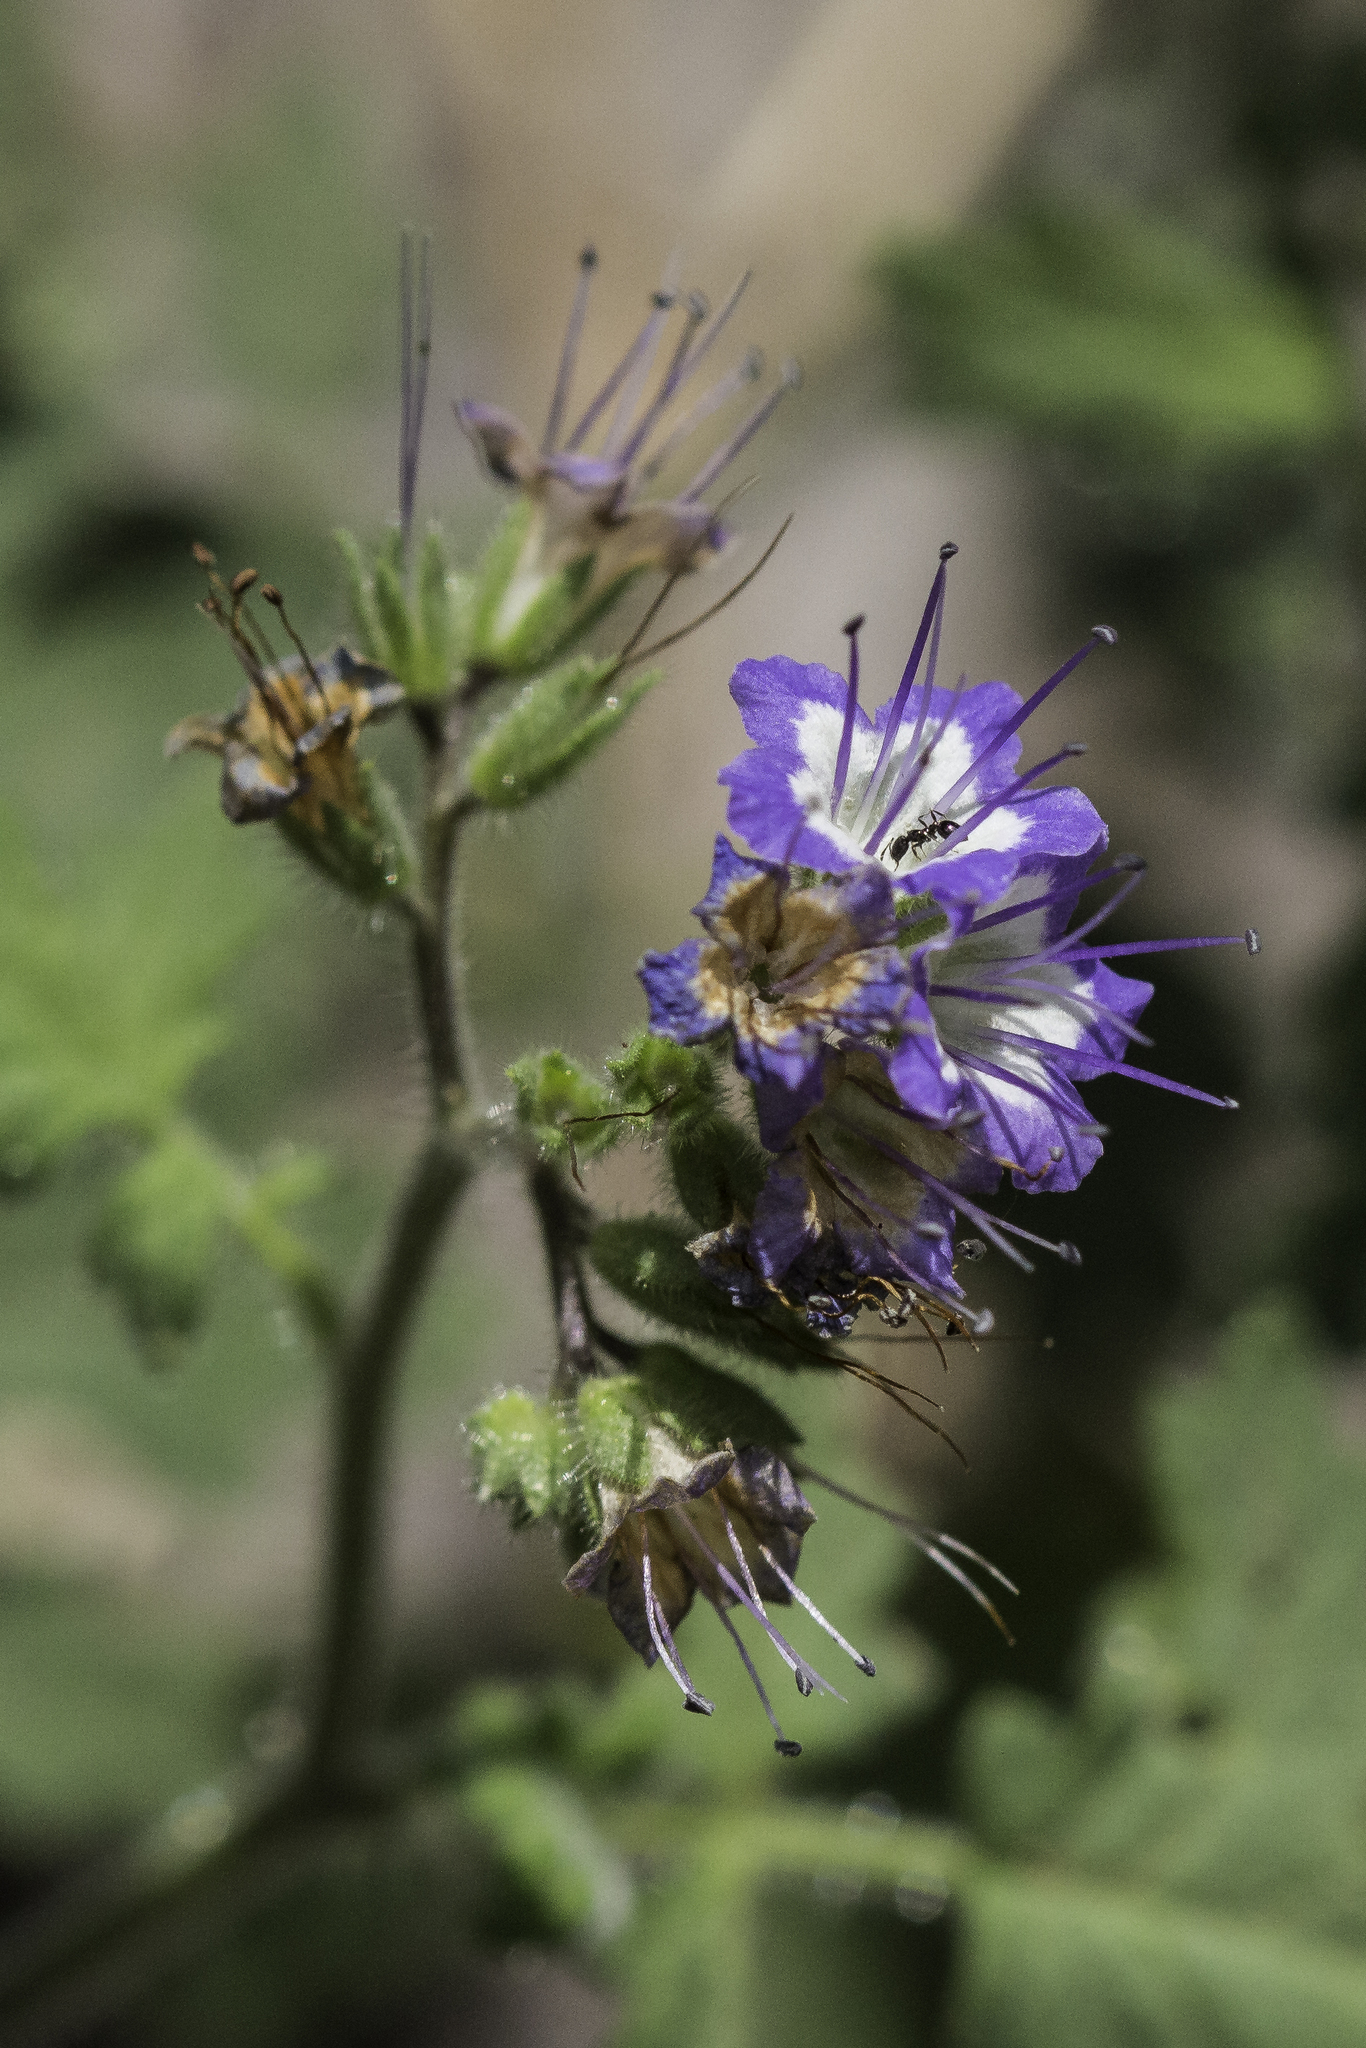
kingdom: Plantae
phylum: Tracheophyta
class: Magnoliopsida
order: Boraginales
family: Hydrophyllaceae
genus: Phacelia
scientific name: Phacelia rupestris
